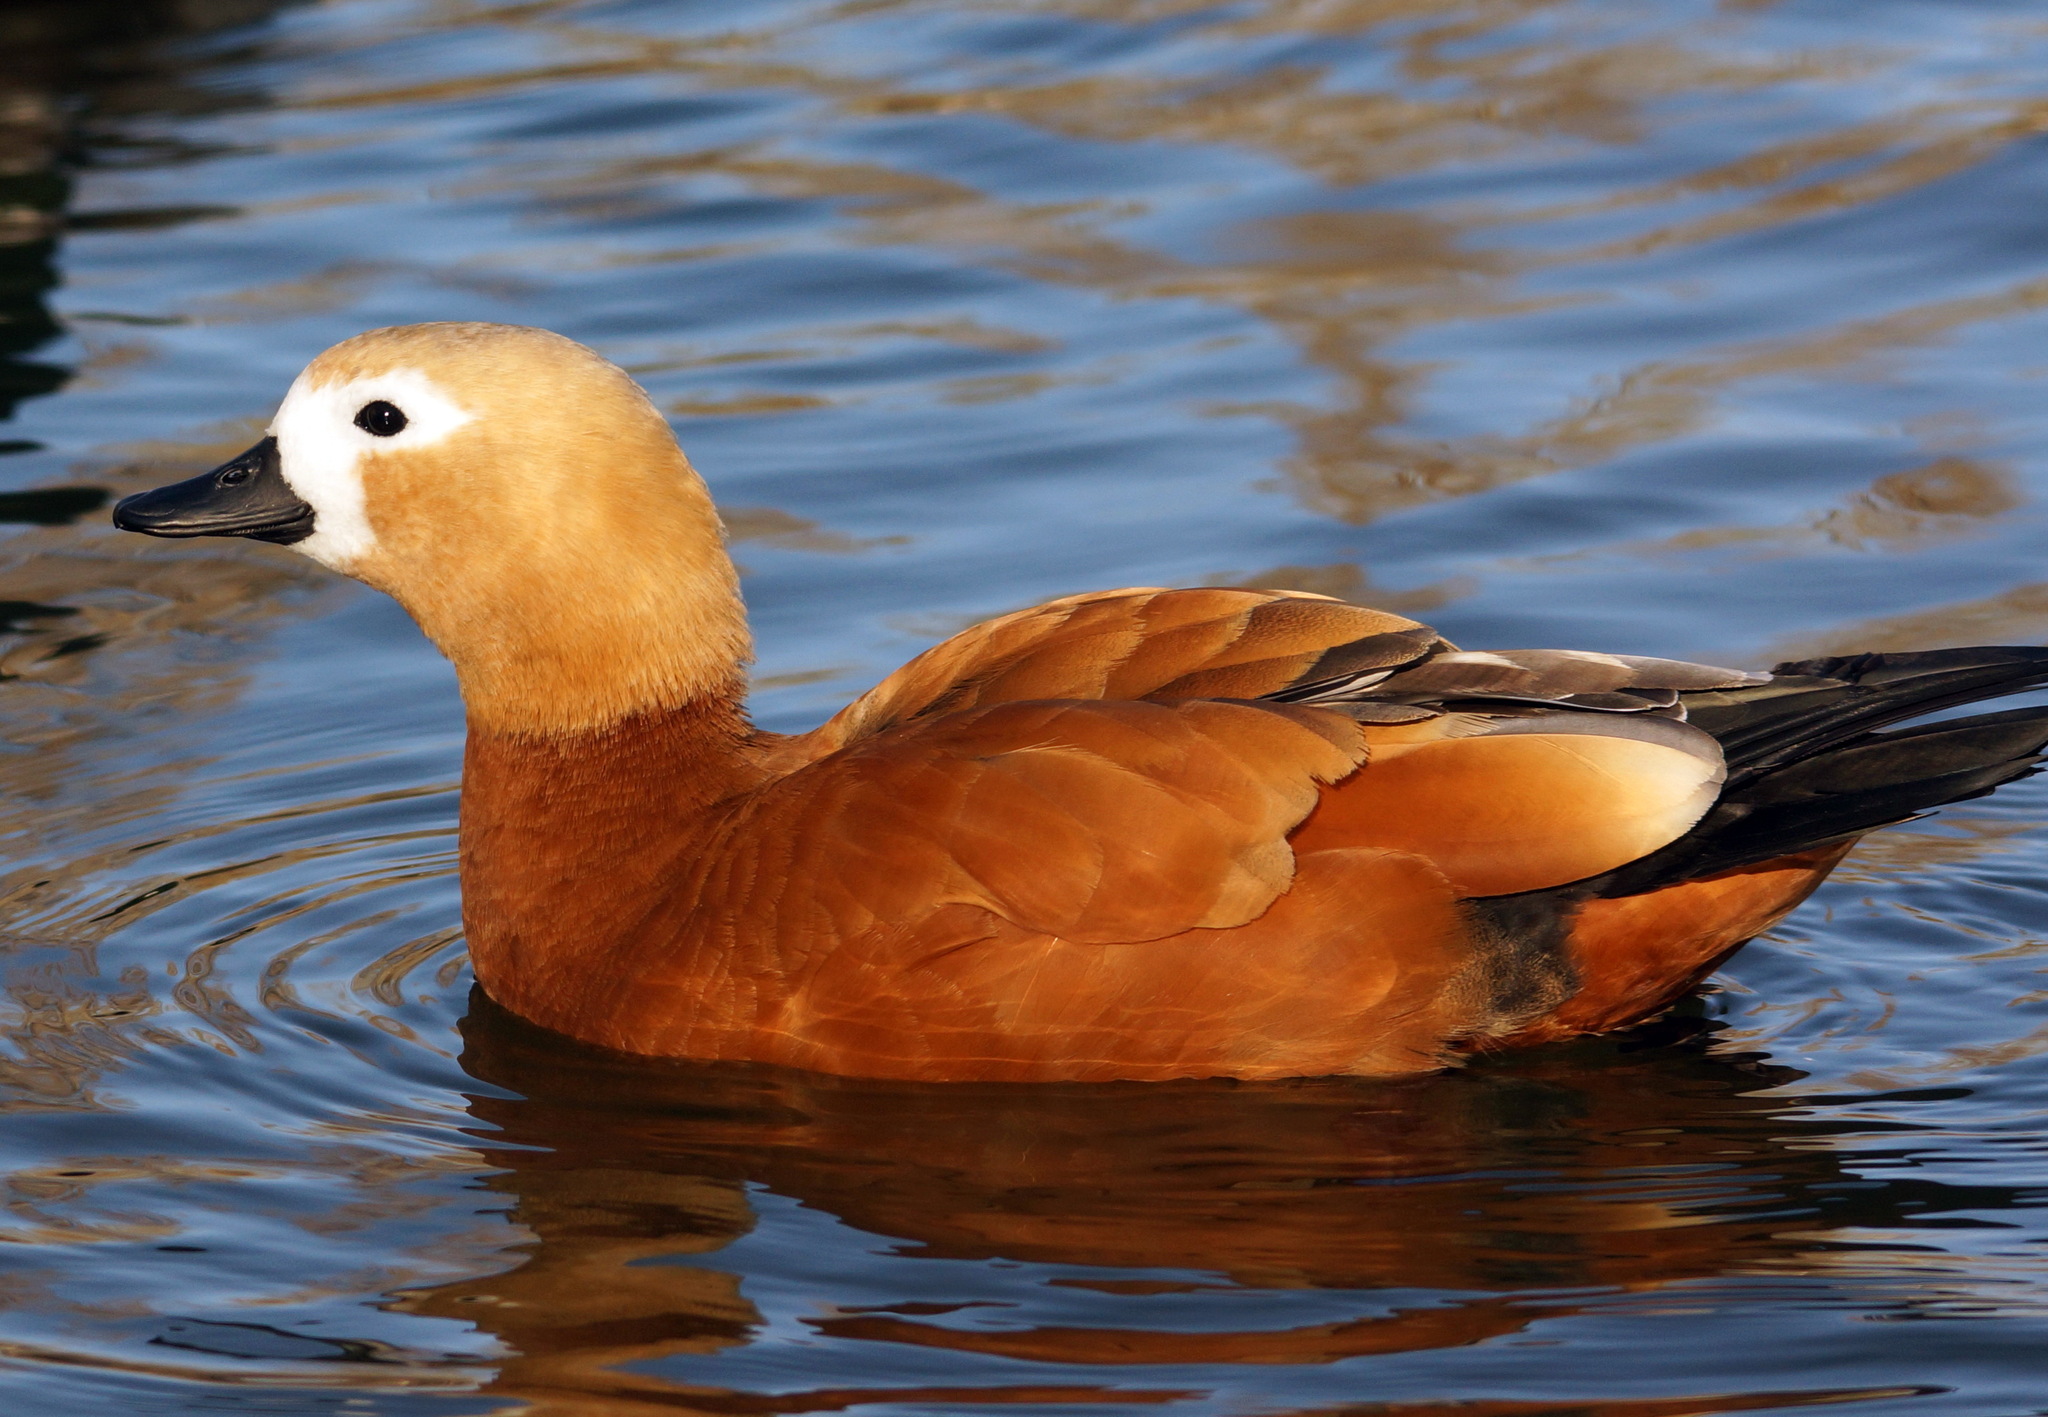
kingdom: Animalia
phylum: Chordata
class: Aves
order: Anseriformes
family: Anatidae
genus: Tadorna
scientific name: Tadorna ferruginea
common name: Ruddy shelduck
